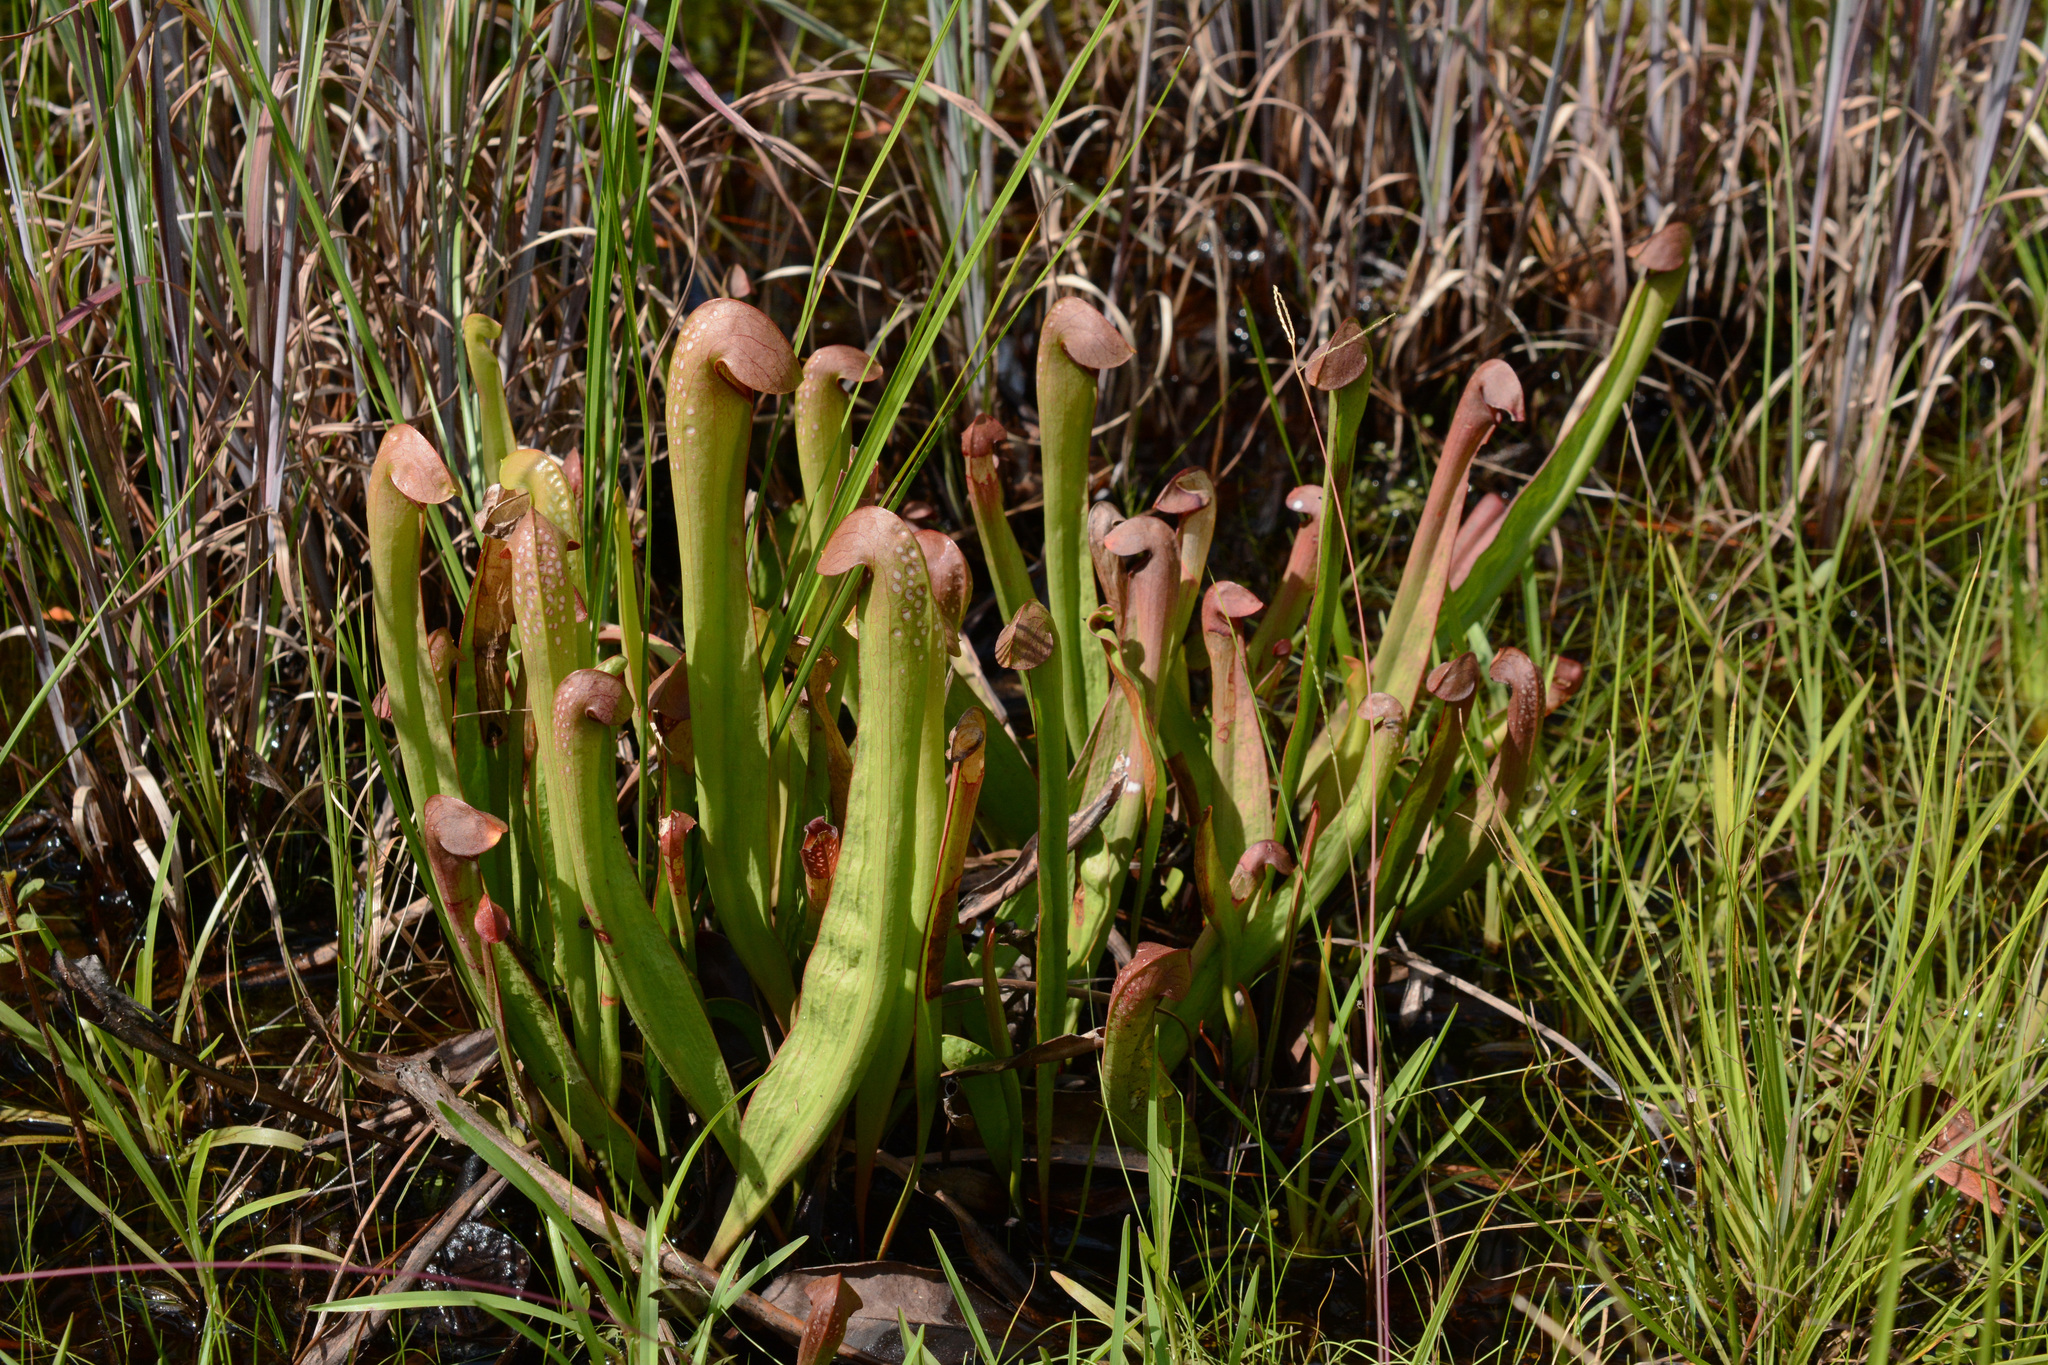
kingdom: Plantae
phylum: Tracheophyta
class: Magnoliopsida
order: Ericales
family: Sarraceniaceae
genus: Sarracenia
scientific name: Sarracenia minor
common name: Rainhat-trumpet
